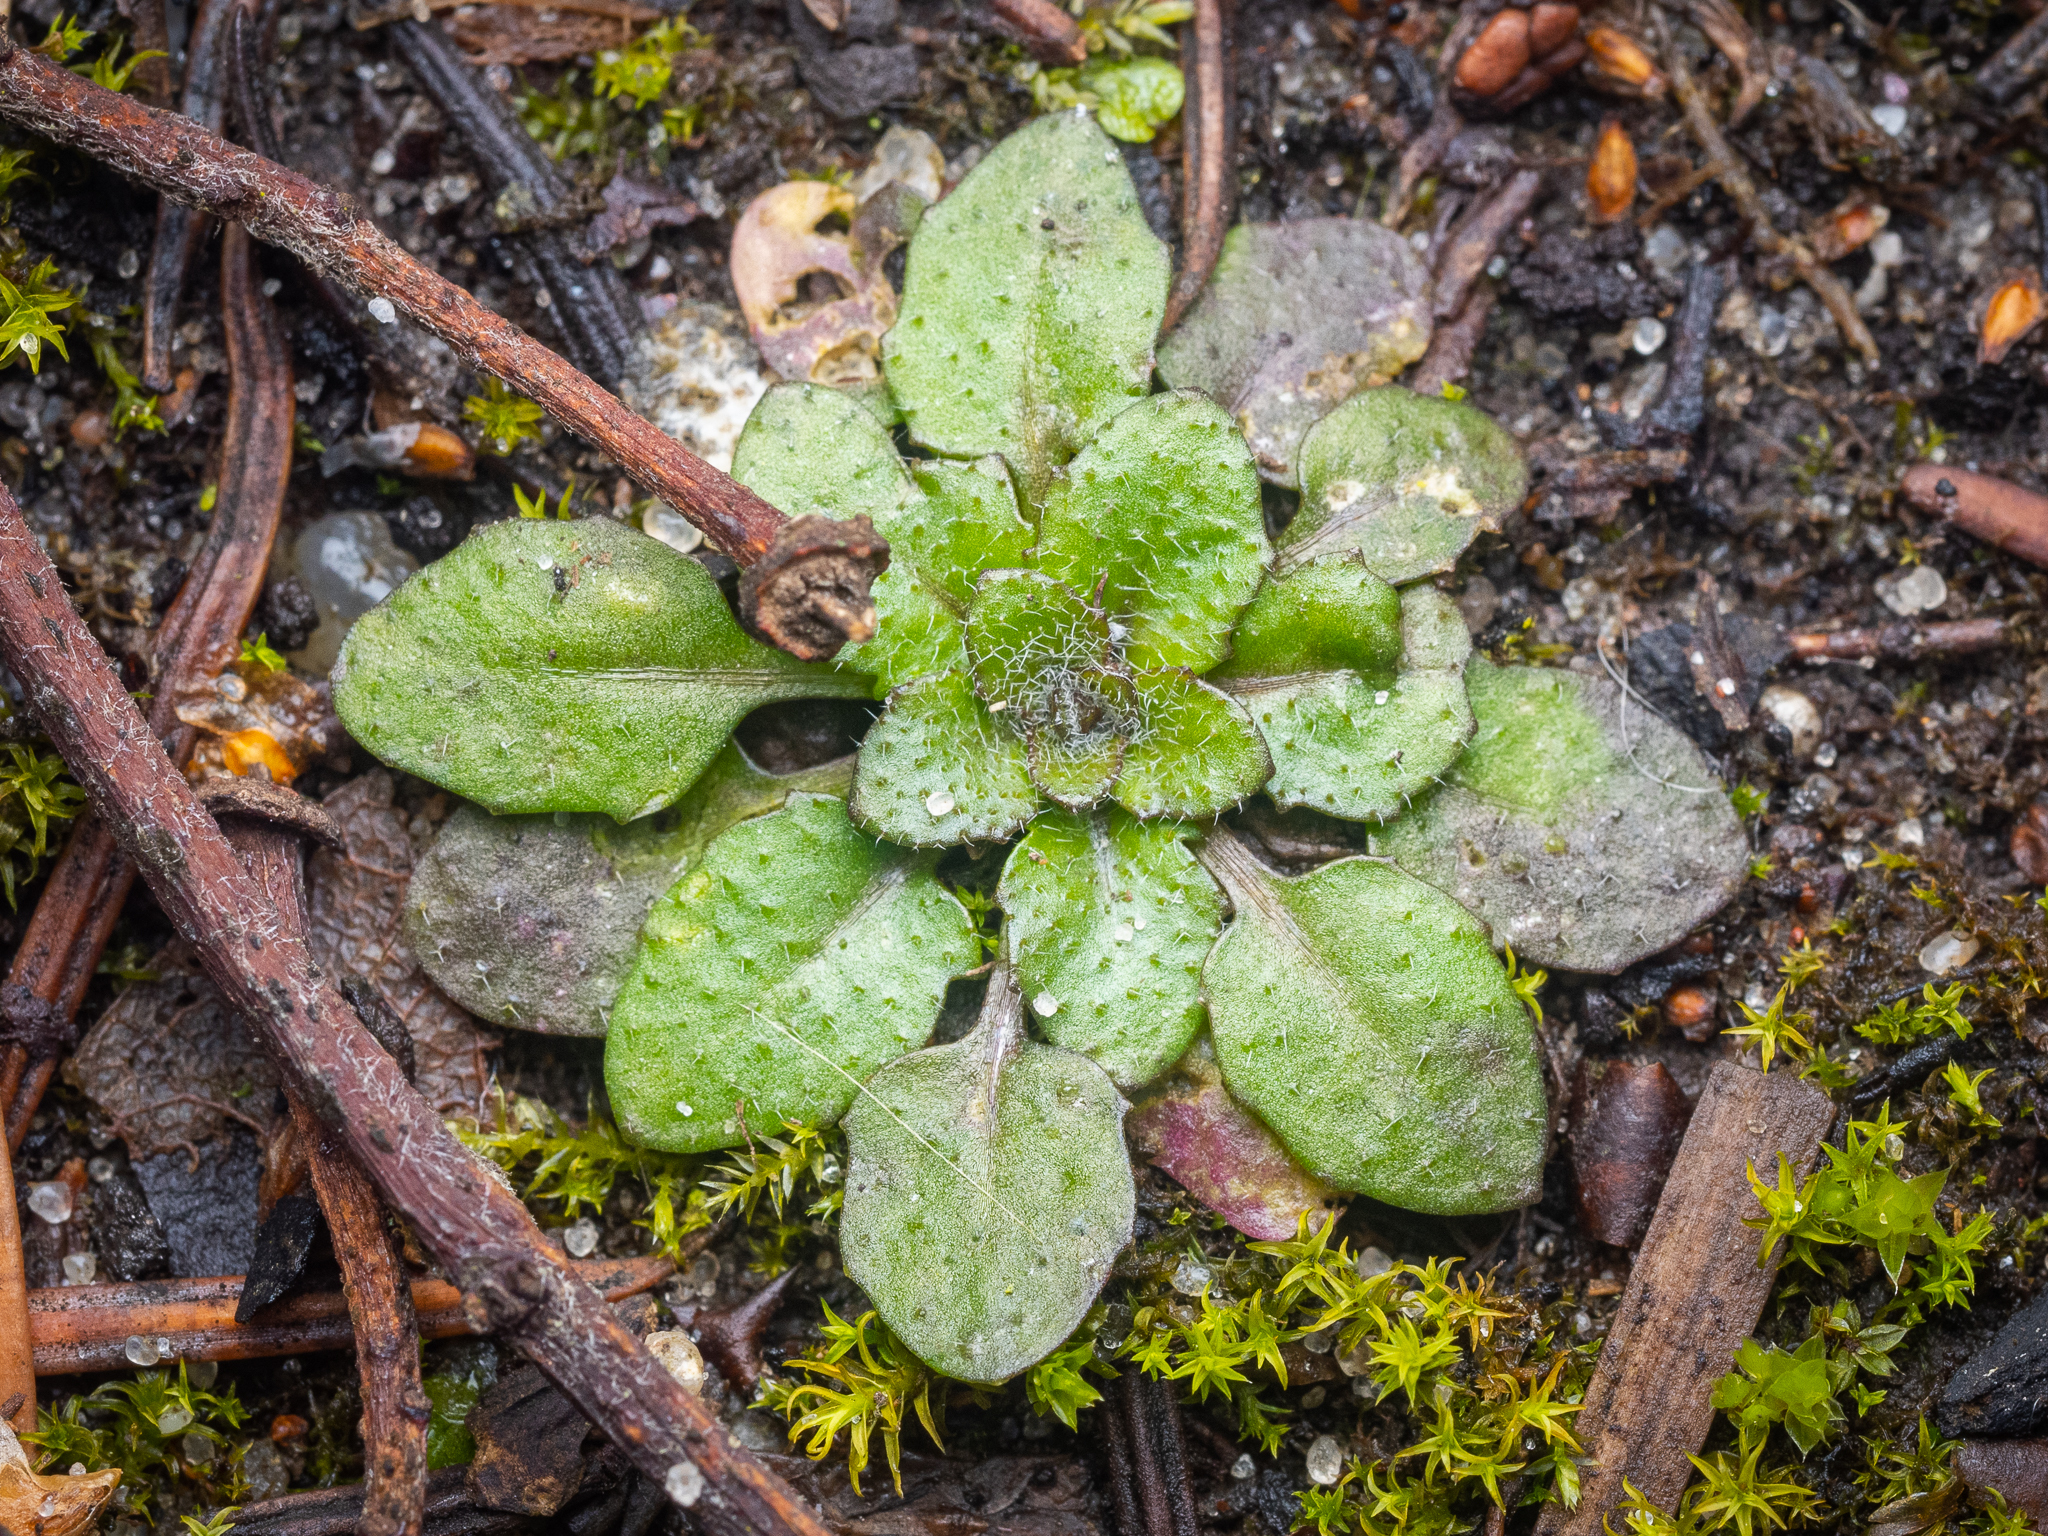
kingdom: Plantae
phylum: Tracheophyta
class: Magnoliopsida
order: Brassicales
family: Brassicaceae
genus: Arabidopsis
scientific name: Arabidopsis thaliana
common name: Thale cress
